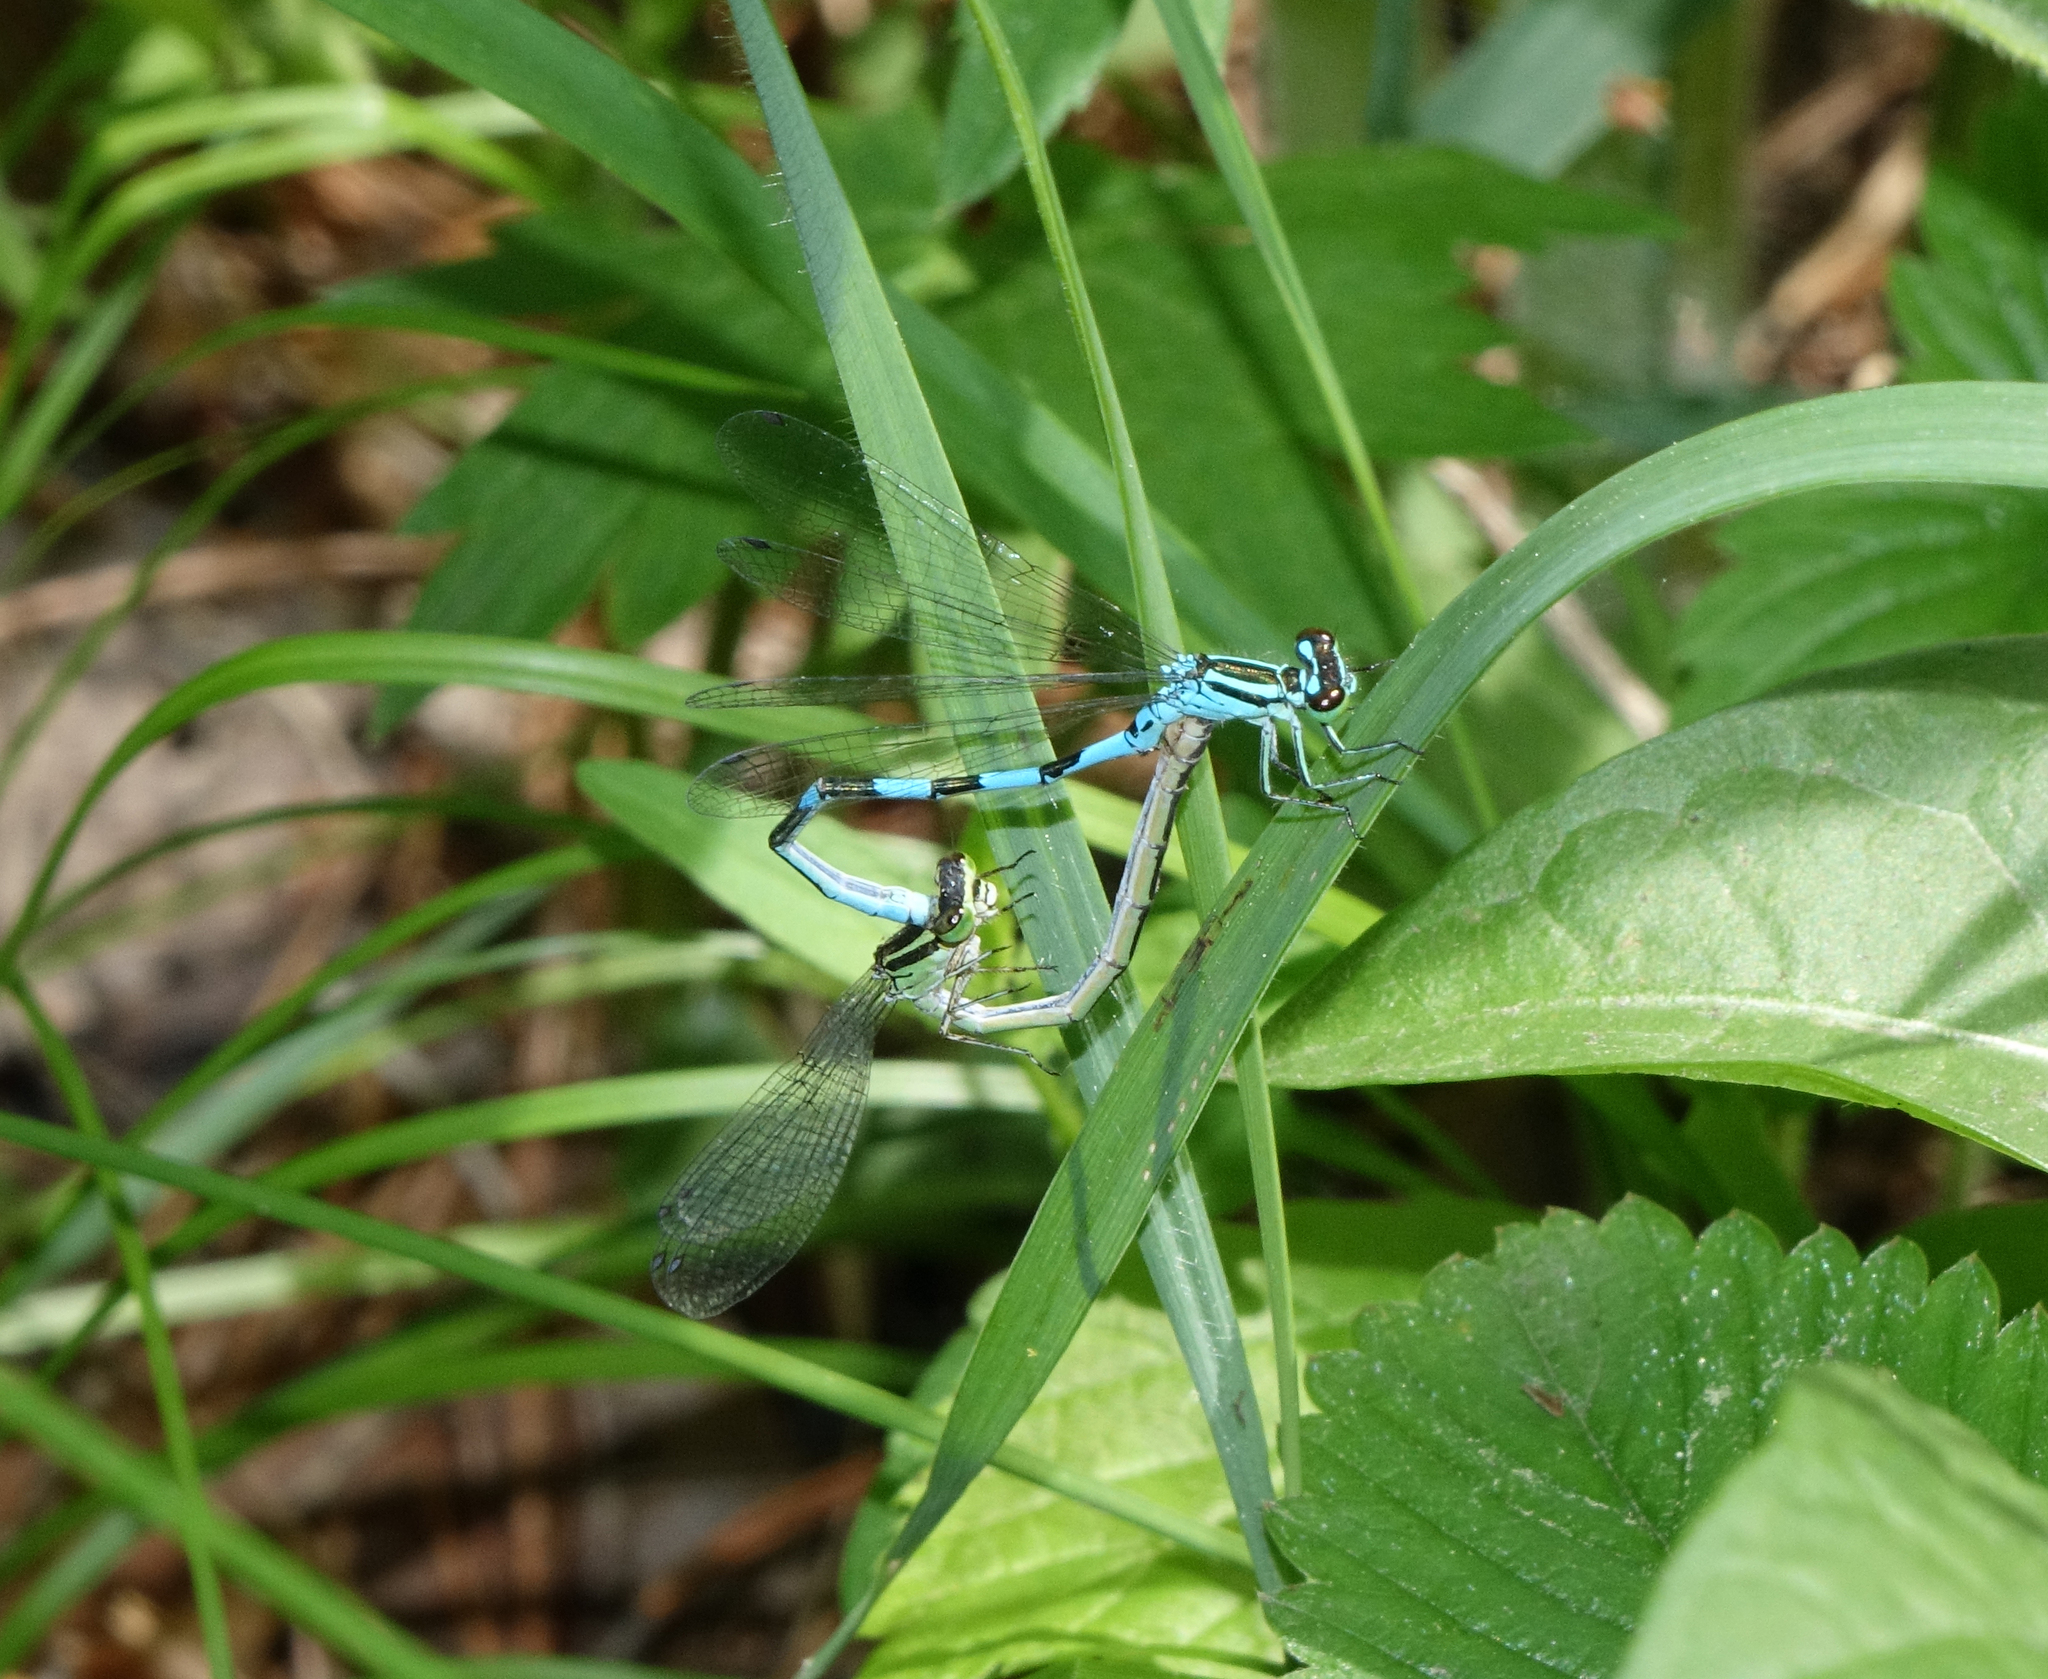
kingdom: Animalia
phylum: Arthropoda
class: Insecta
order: Odonata
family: Coenagrionidae
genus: Coenagrion
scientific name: Coenagrion hastulatum
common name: Spearhead bluet
